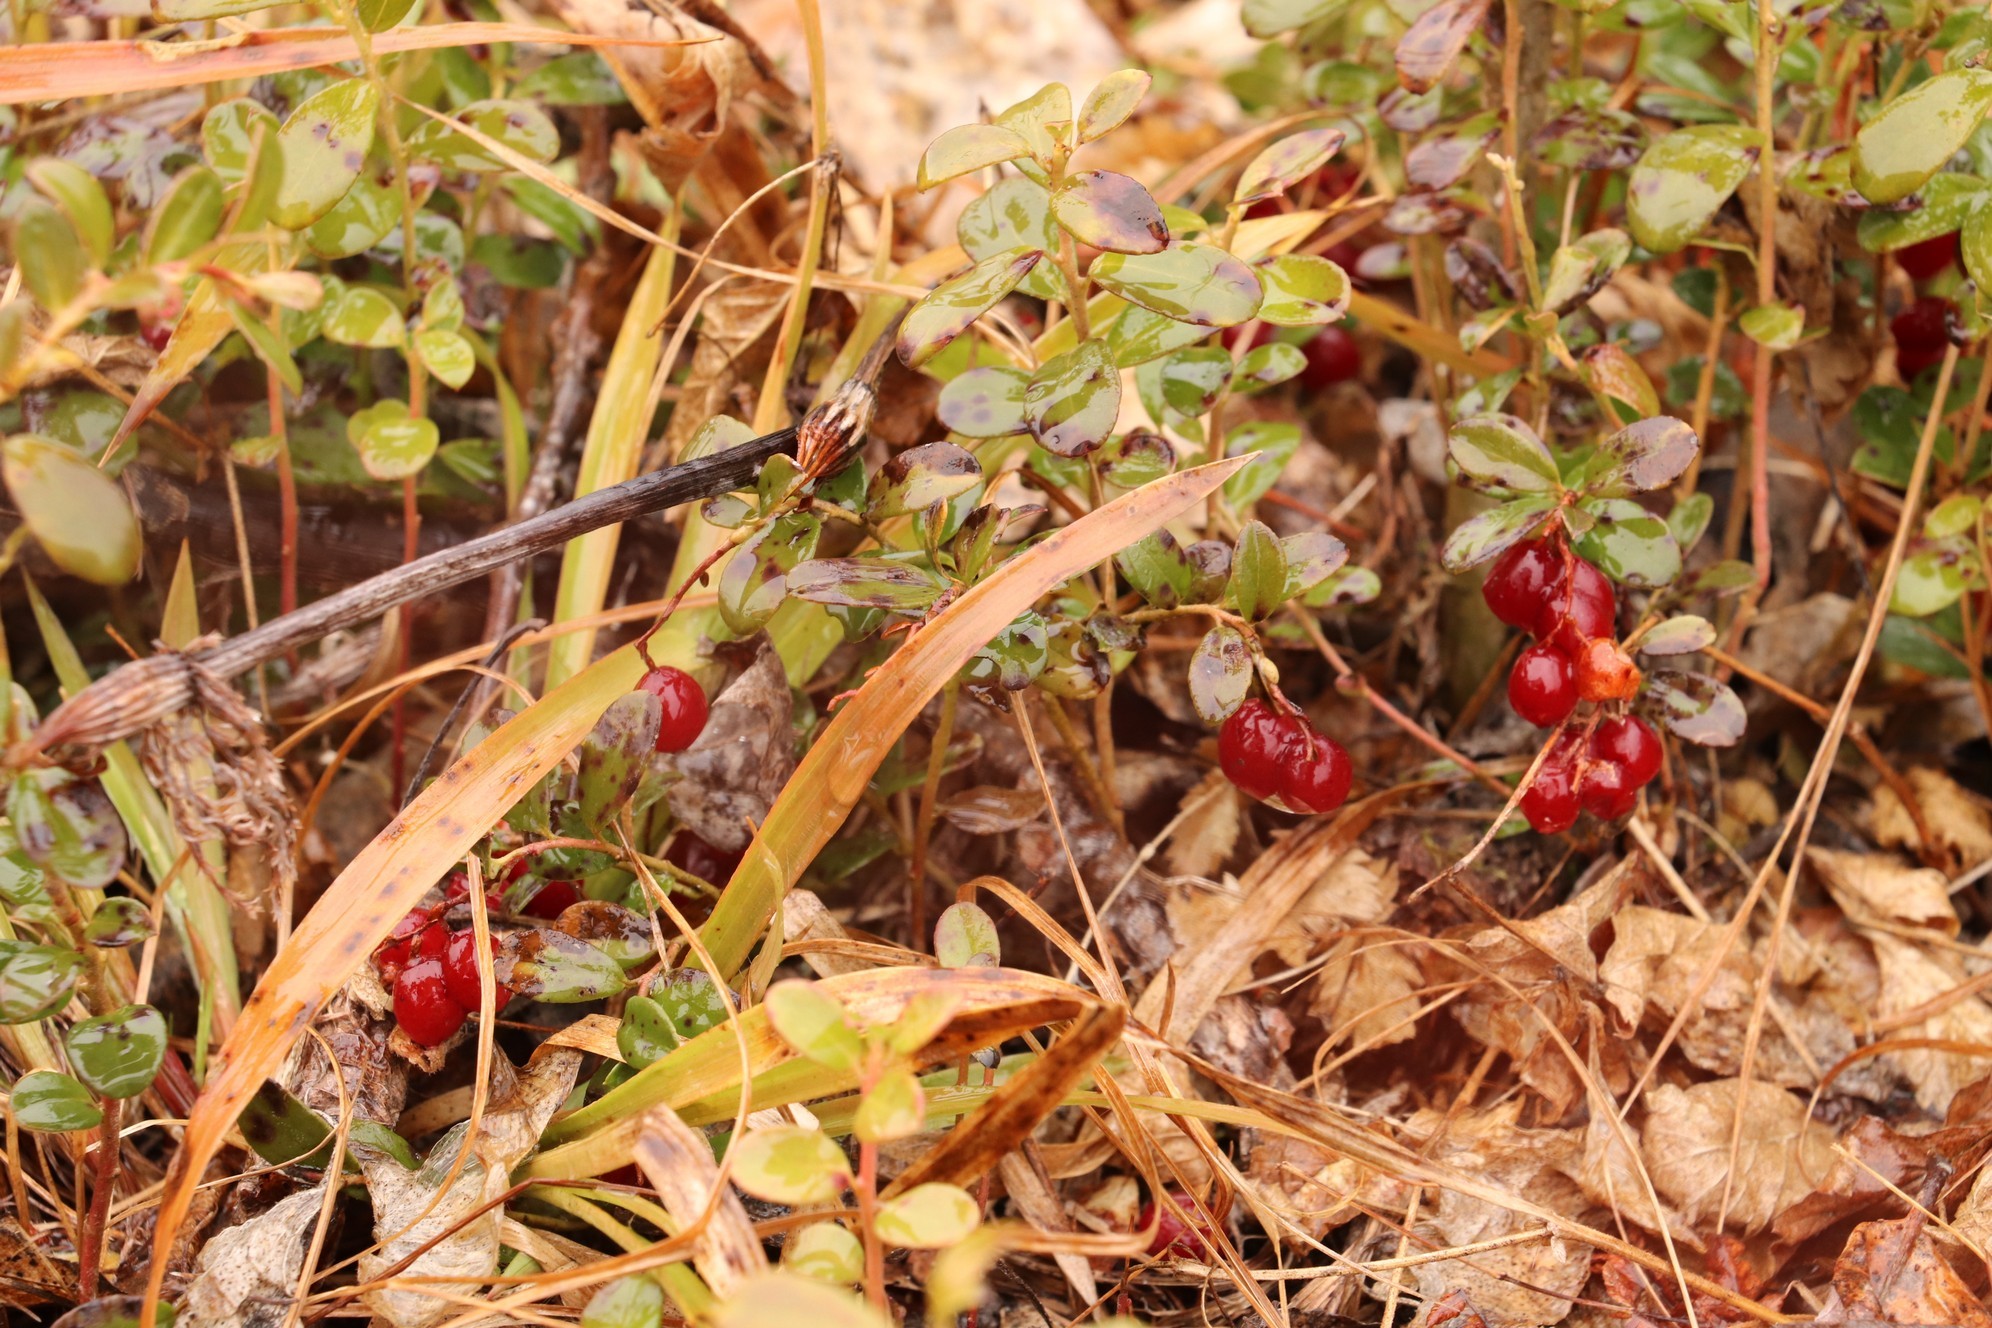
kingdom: Plantae
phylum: Tracheophyta
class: Magnoliopsida
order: Ericales
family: Ericaceae
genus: Vaccinium
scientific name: Vaccinium vitis-idaea
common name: Cowberry
